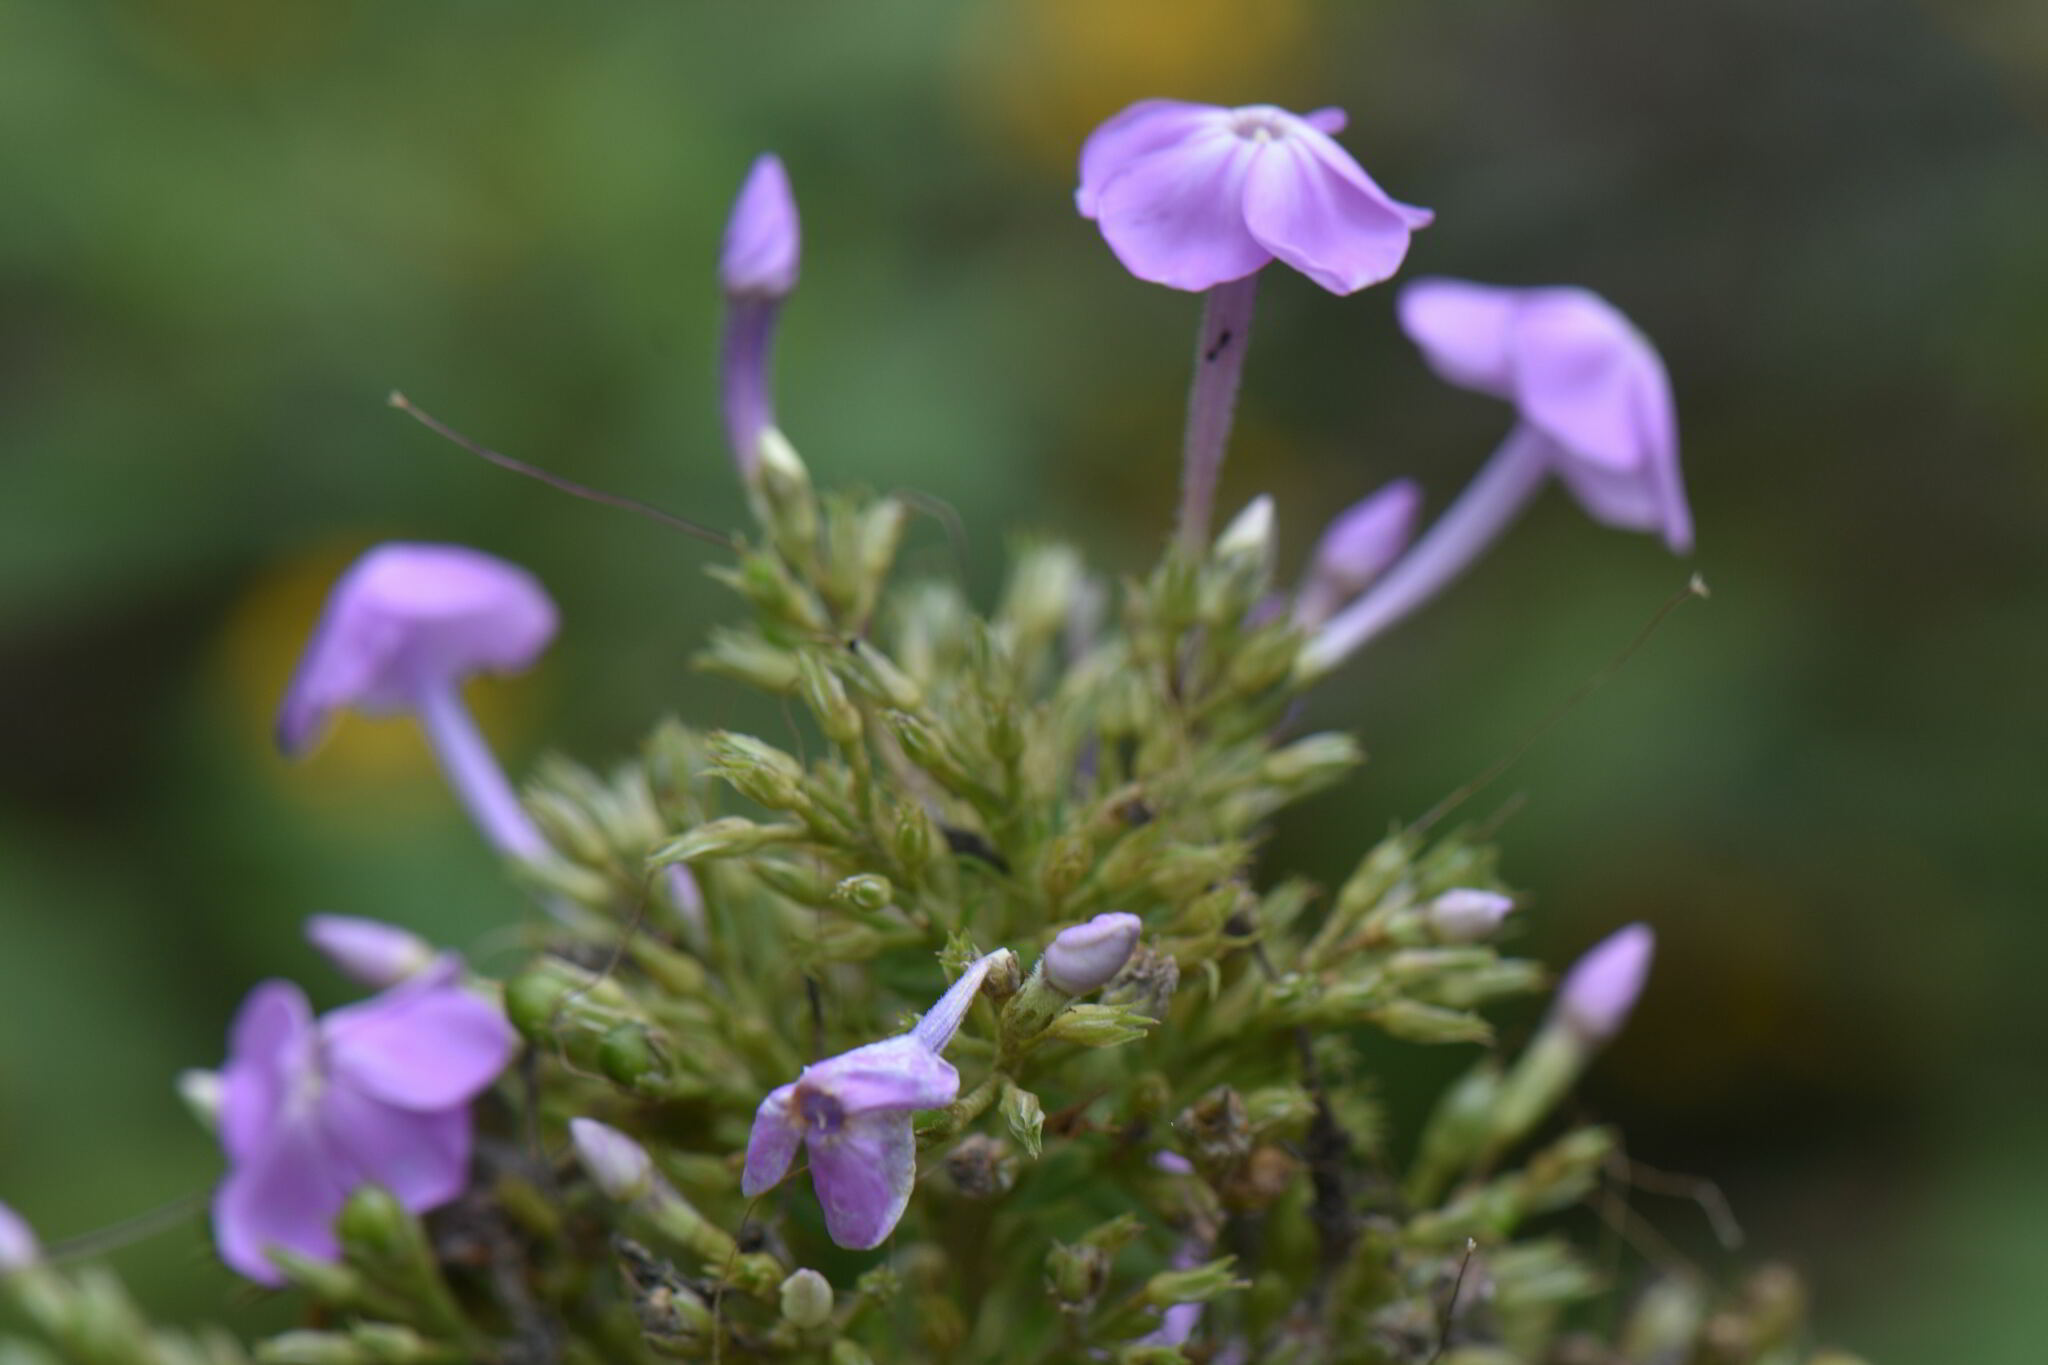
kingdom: Plantae
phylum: Tracheophyta
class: Magnoliopsida
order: Ericales
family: Polemoniaceae
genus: Phlox
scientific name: Phlox paniculata
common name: Fall phlox
